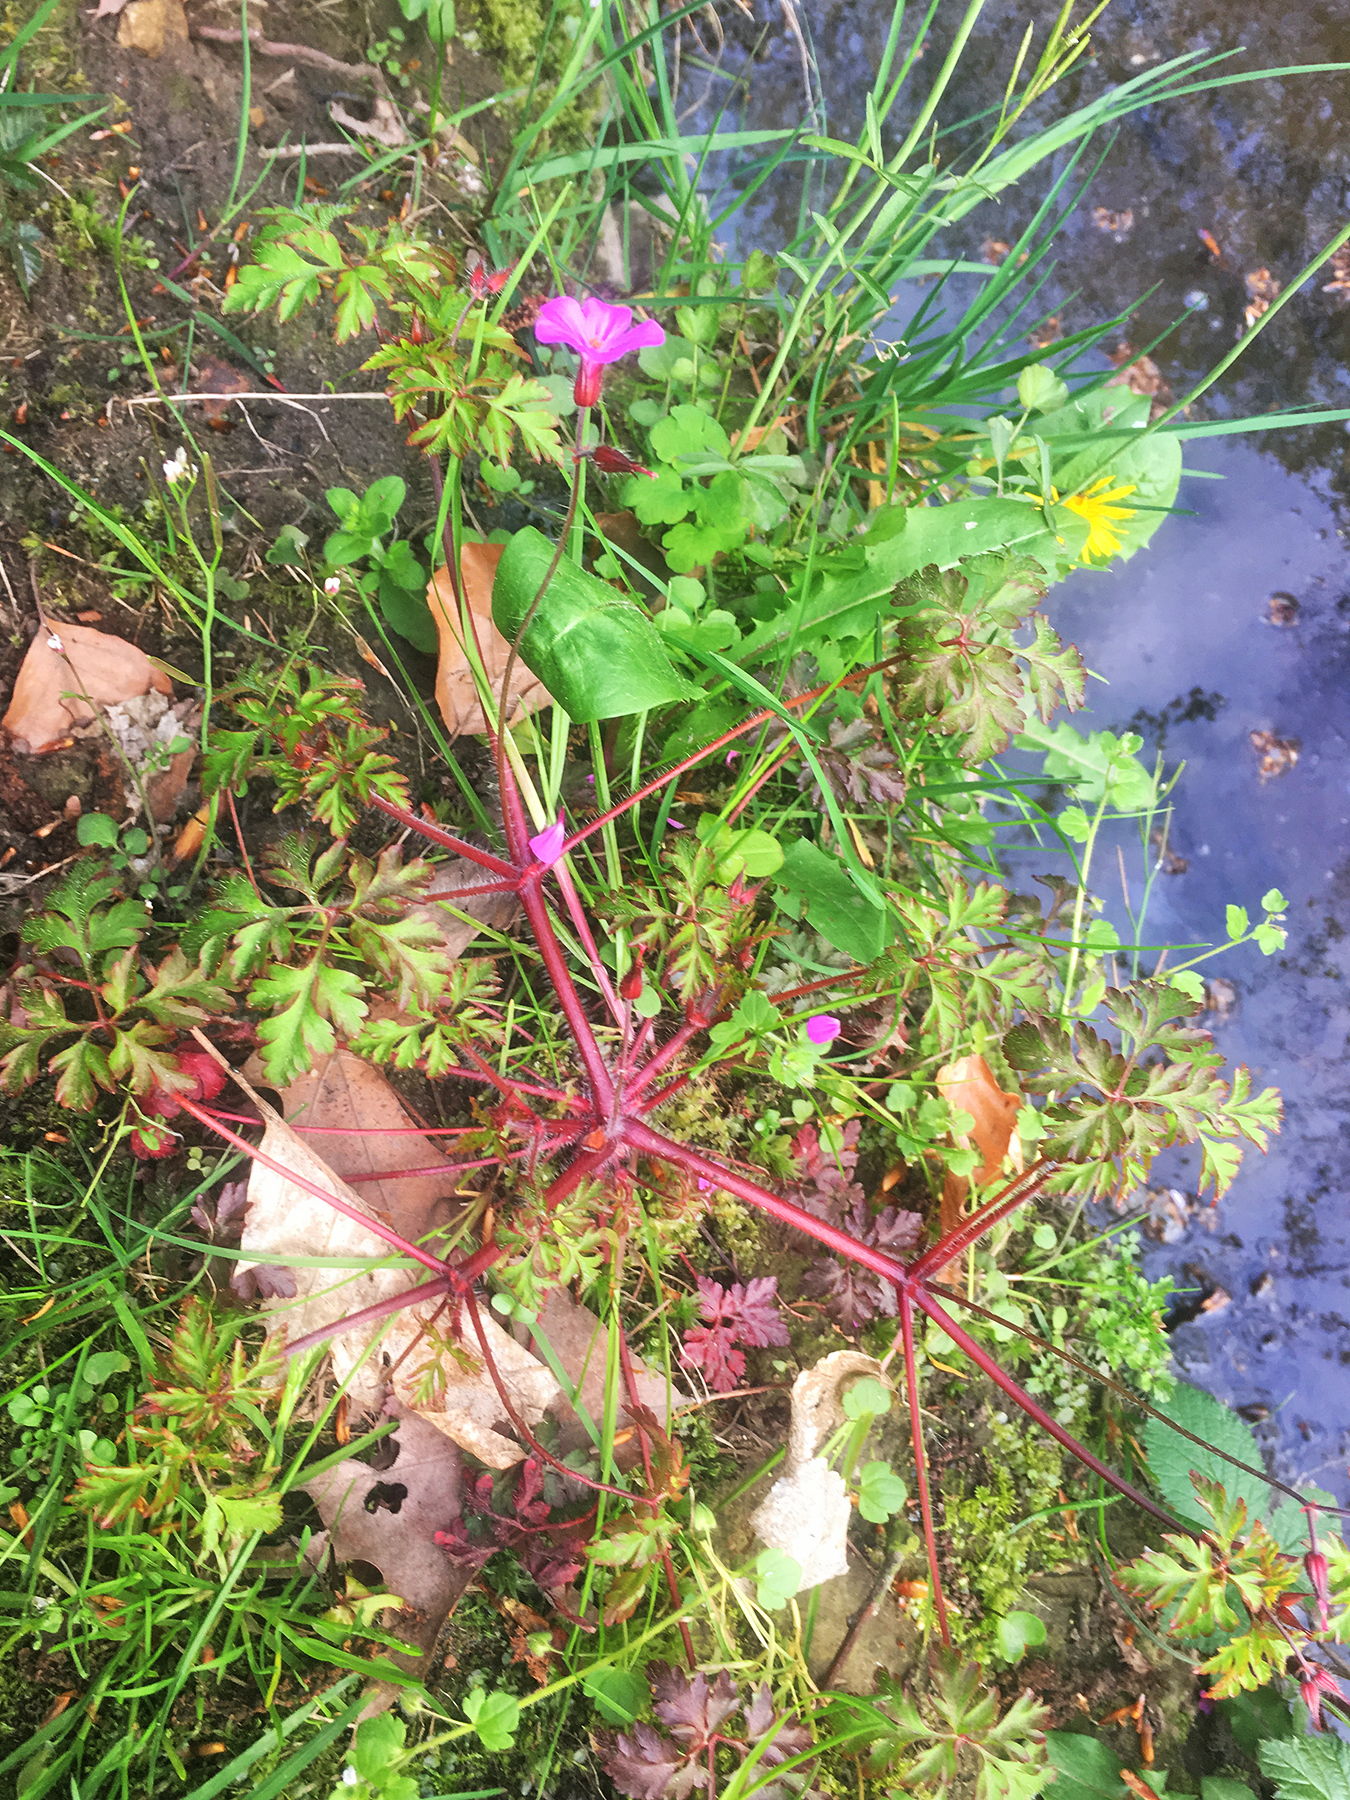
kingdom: Plantae
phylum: Tracheophyta
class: Magnoliopsida
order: Geraniales
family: Geraniaceae
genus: Geranium
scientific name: Geranium robertianum
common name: Herb-robert
